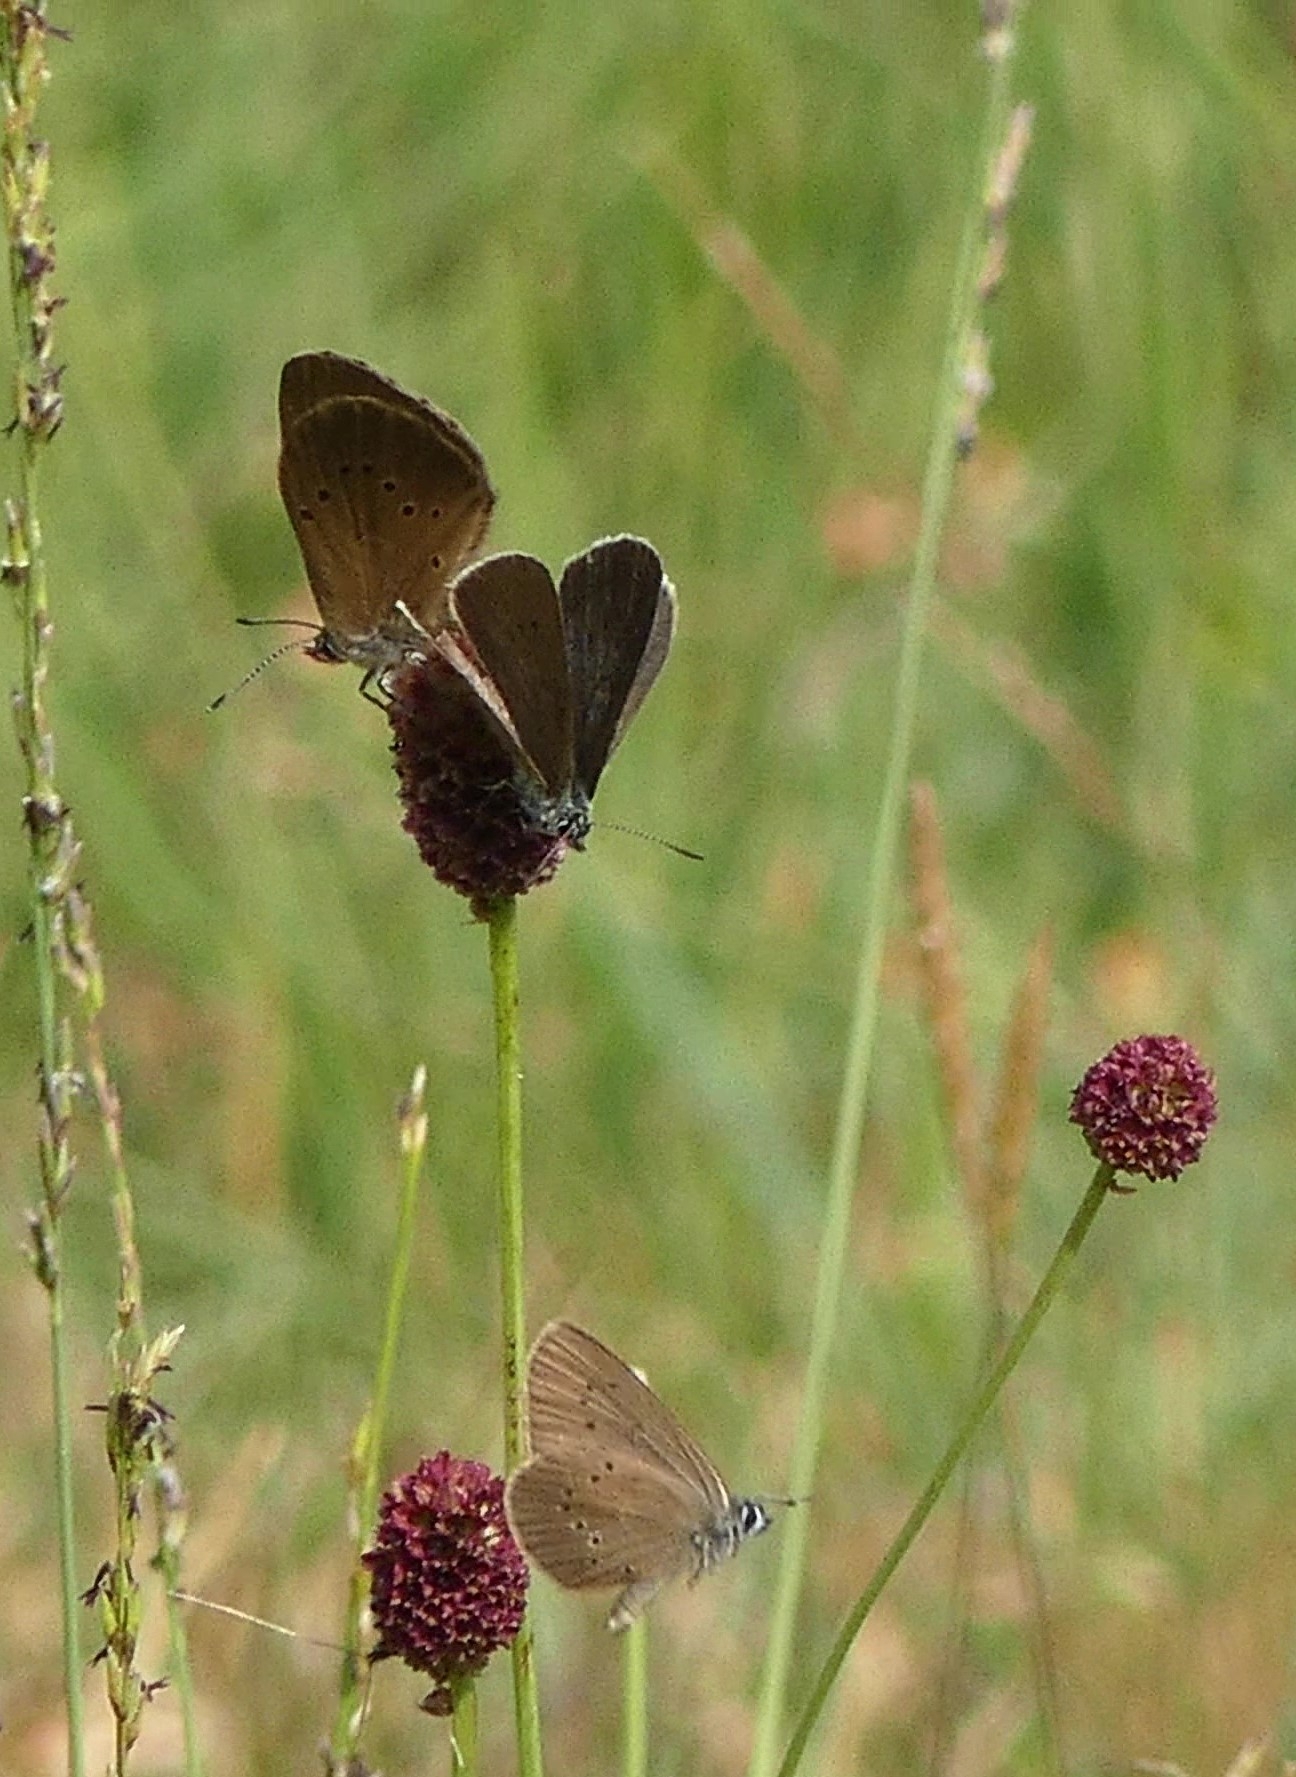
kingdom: Animalia
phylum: Arthropoda
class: Insecta
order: Lepidoptera
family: Lycaenidae
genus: Maculinea
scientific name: Maculinea nausithous
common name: Dusky large blue
